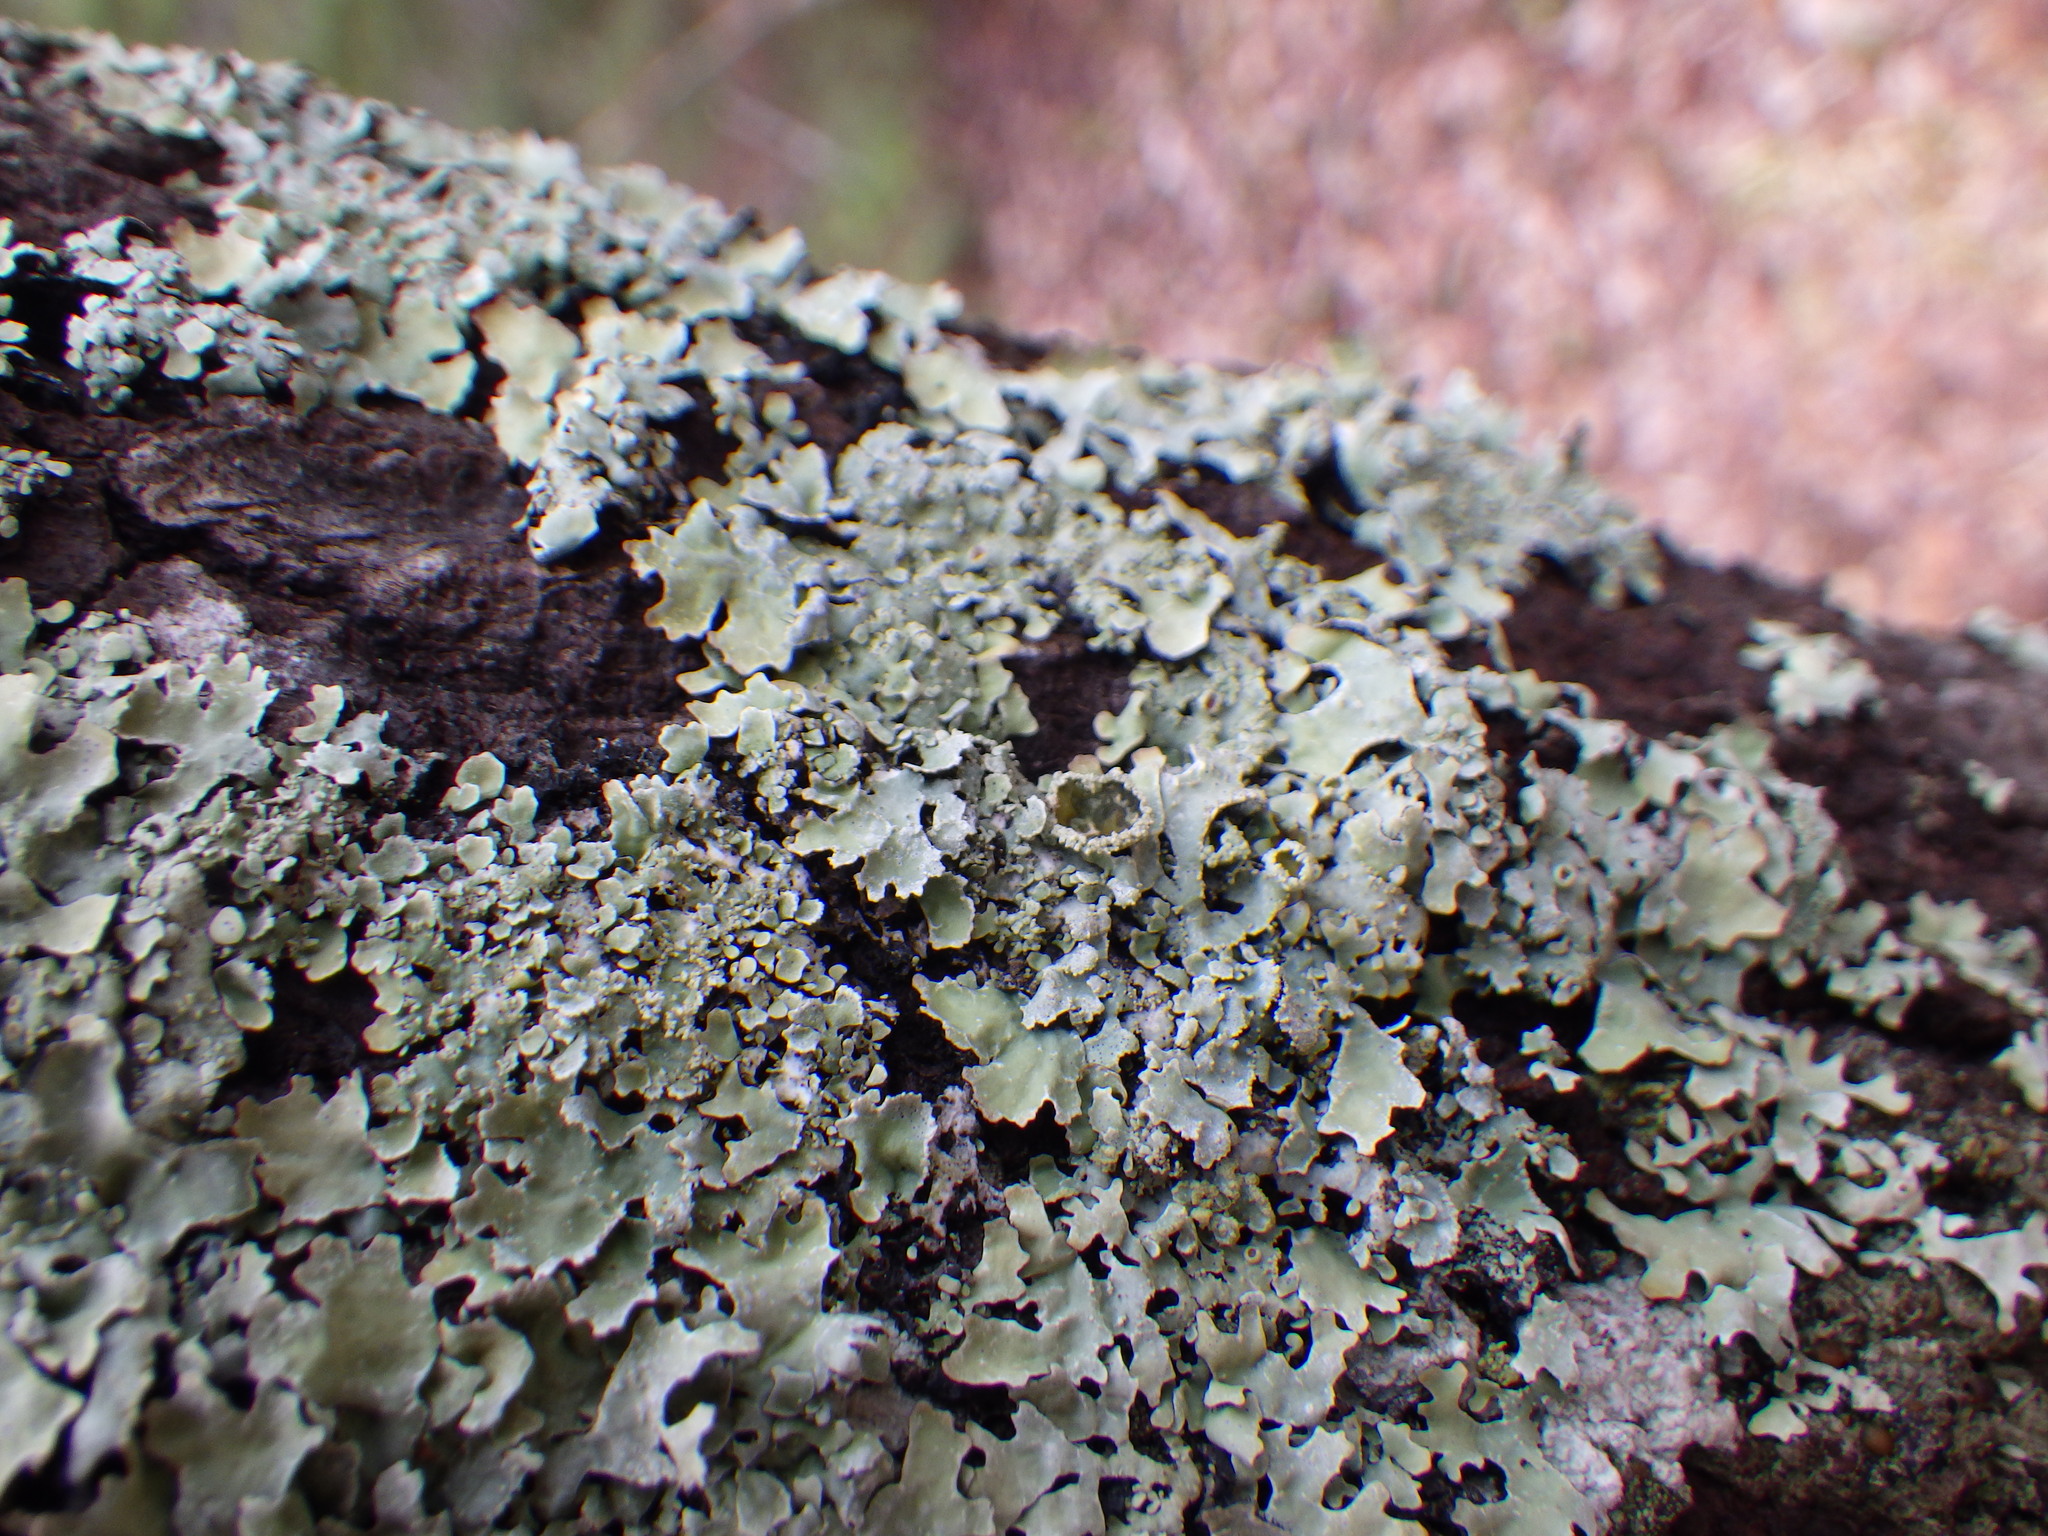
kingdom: Fungi
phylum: Ascomycota
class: Lecanoromycetes
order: Lecanorales
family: Parmeliaceae
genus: Parmelia
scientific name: Parmelia squarrosa
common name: Bottle brush shield lichen
